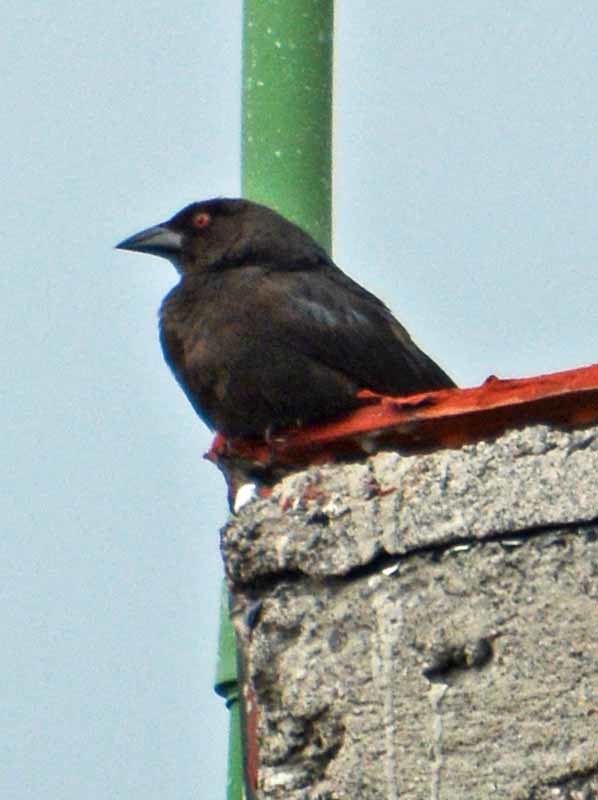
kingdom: Animalia
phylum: Chordata
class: Aves
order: Passeriformes
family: Icteridae
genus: Molothrus
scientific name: Molothrus aeneus
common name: Bronzed cowbird
